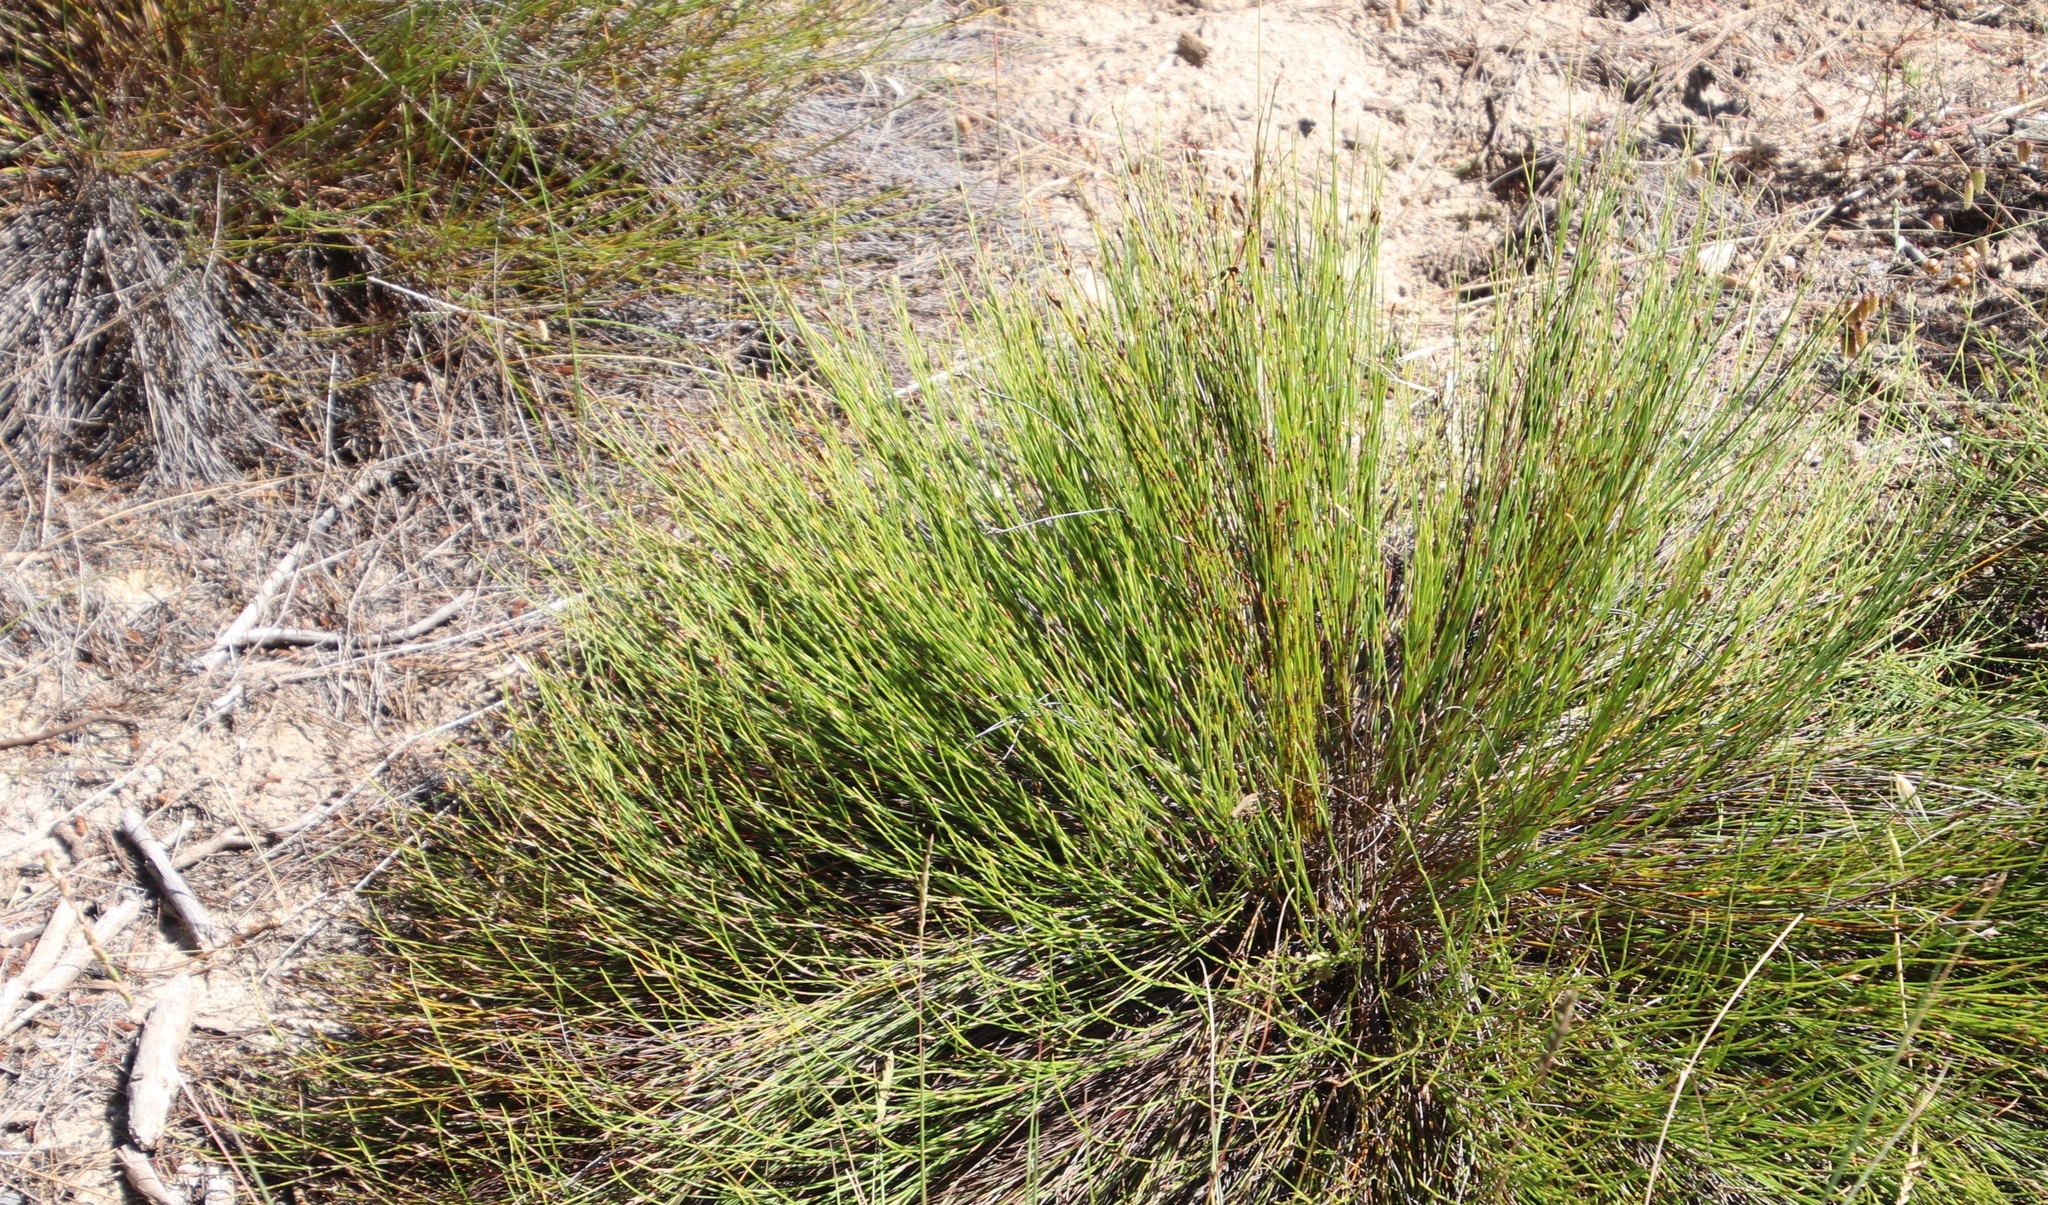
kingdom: Plantae
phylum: Tracheophyta
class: Liliopsida
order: Poales
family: Restionaceae
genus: Mastersiella
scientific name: Mastersiella digitata
